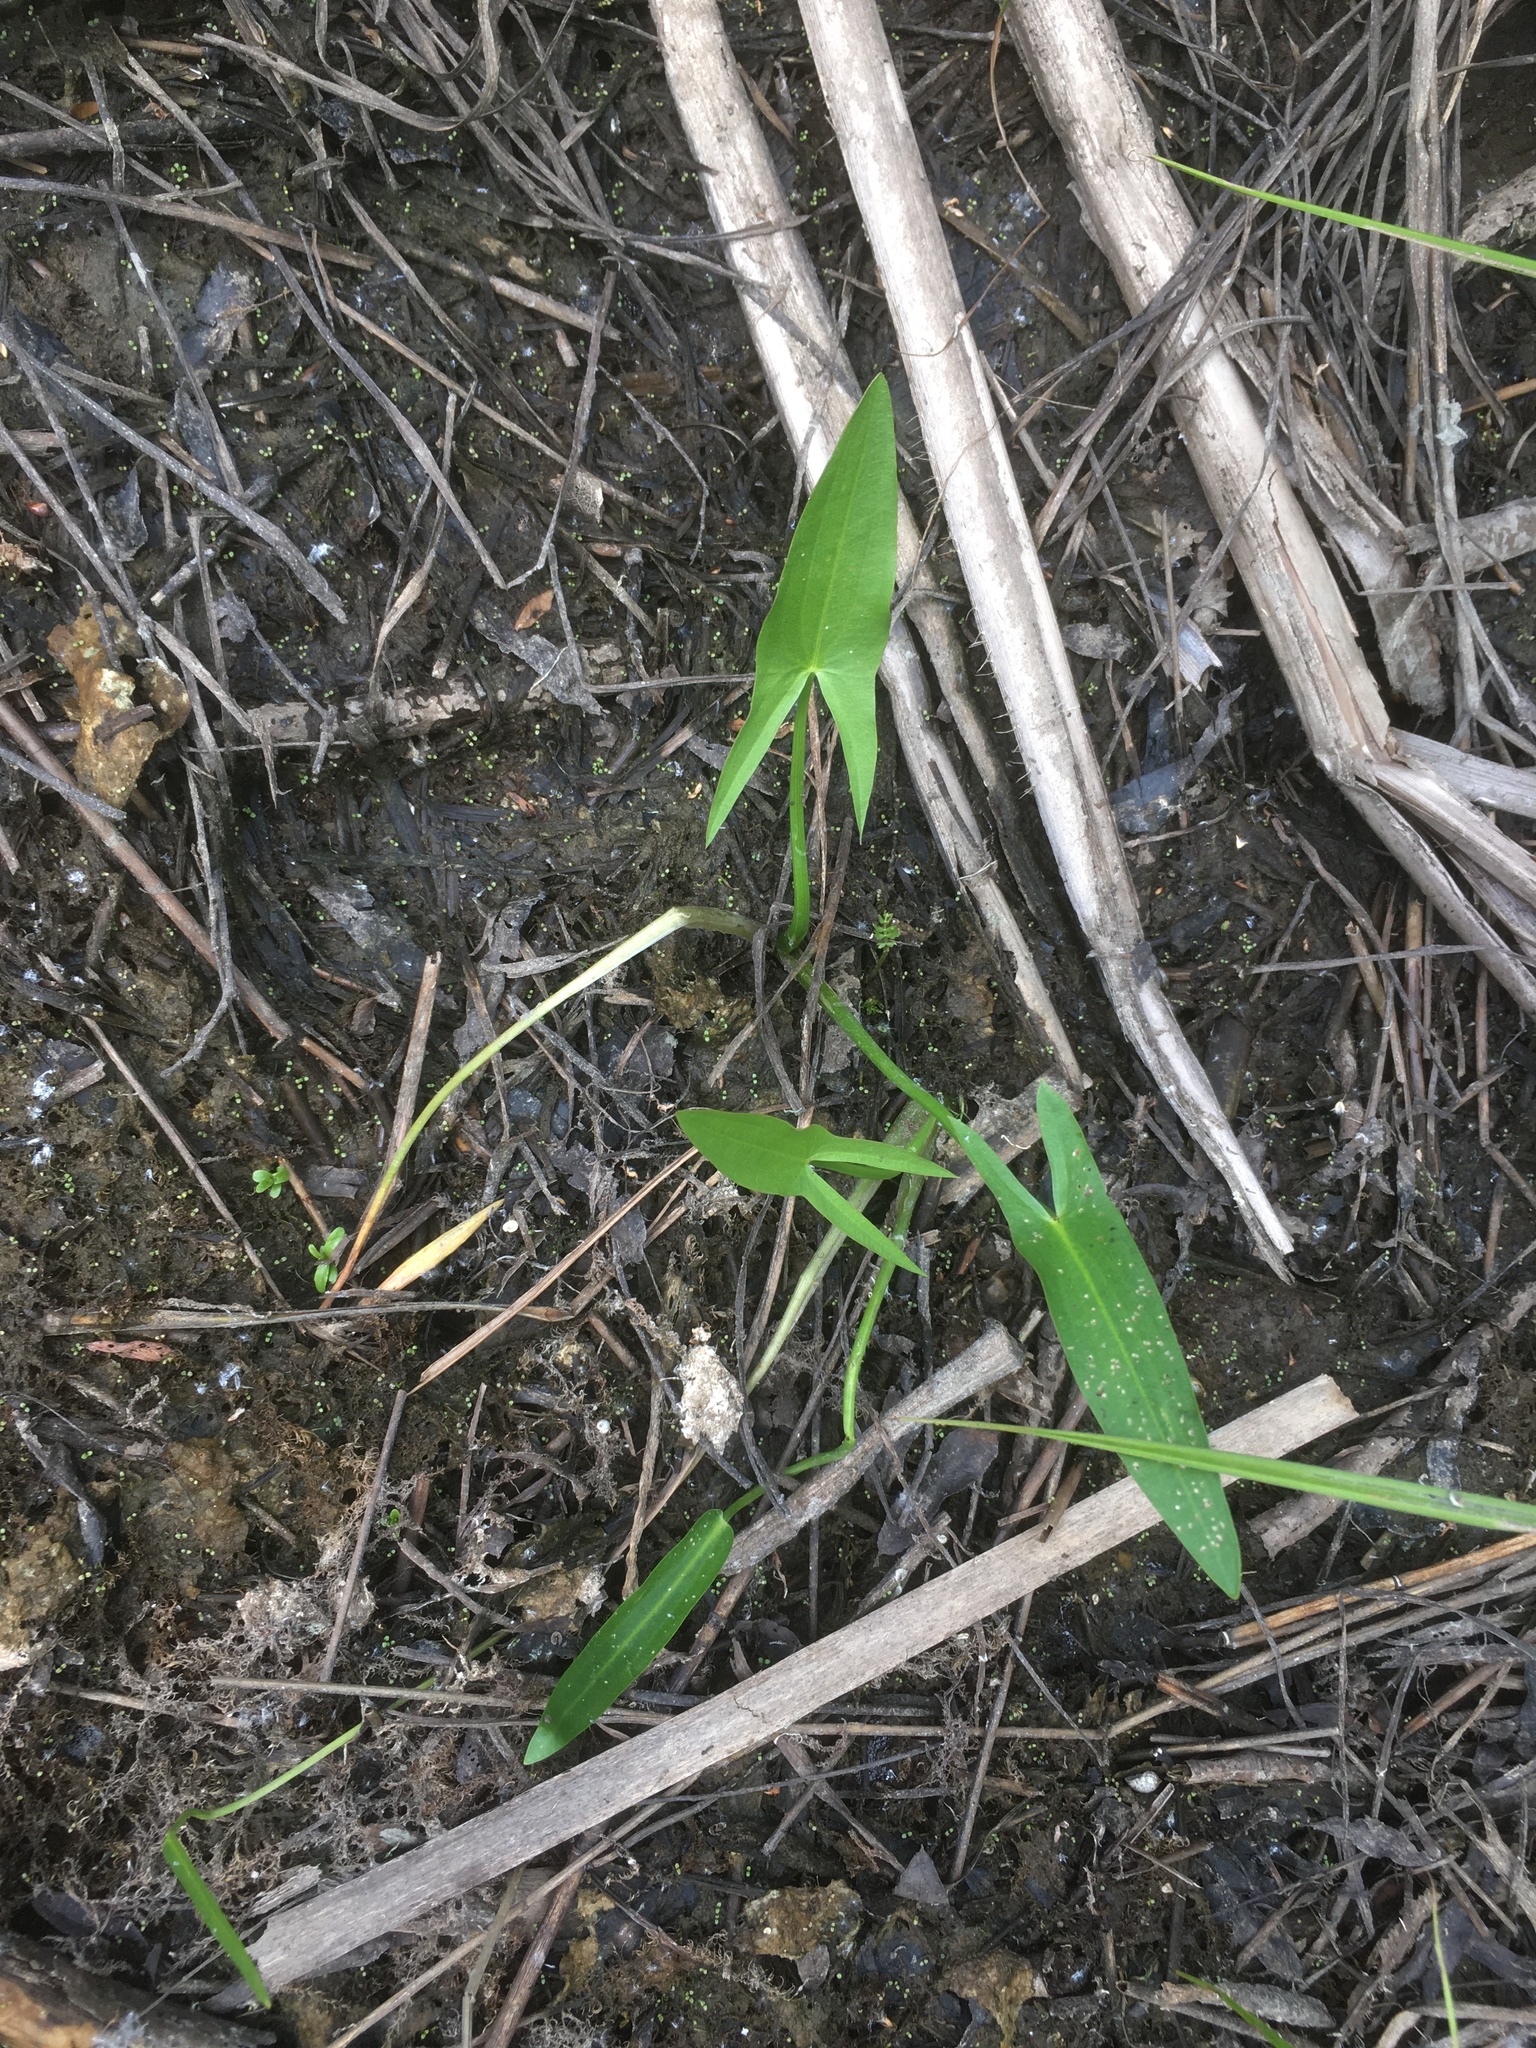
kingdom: Plantae
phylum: Tracheophyta
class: Liliopsida
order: Alismatales
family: Alismataceae
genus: Sagittaria
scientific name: Sagittaria latifolia
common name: Duck-potato
